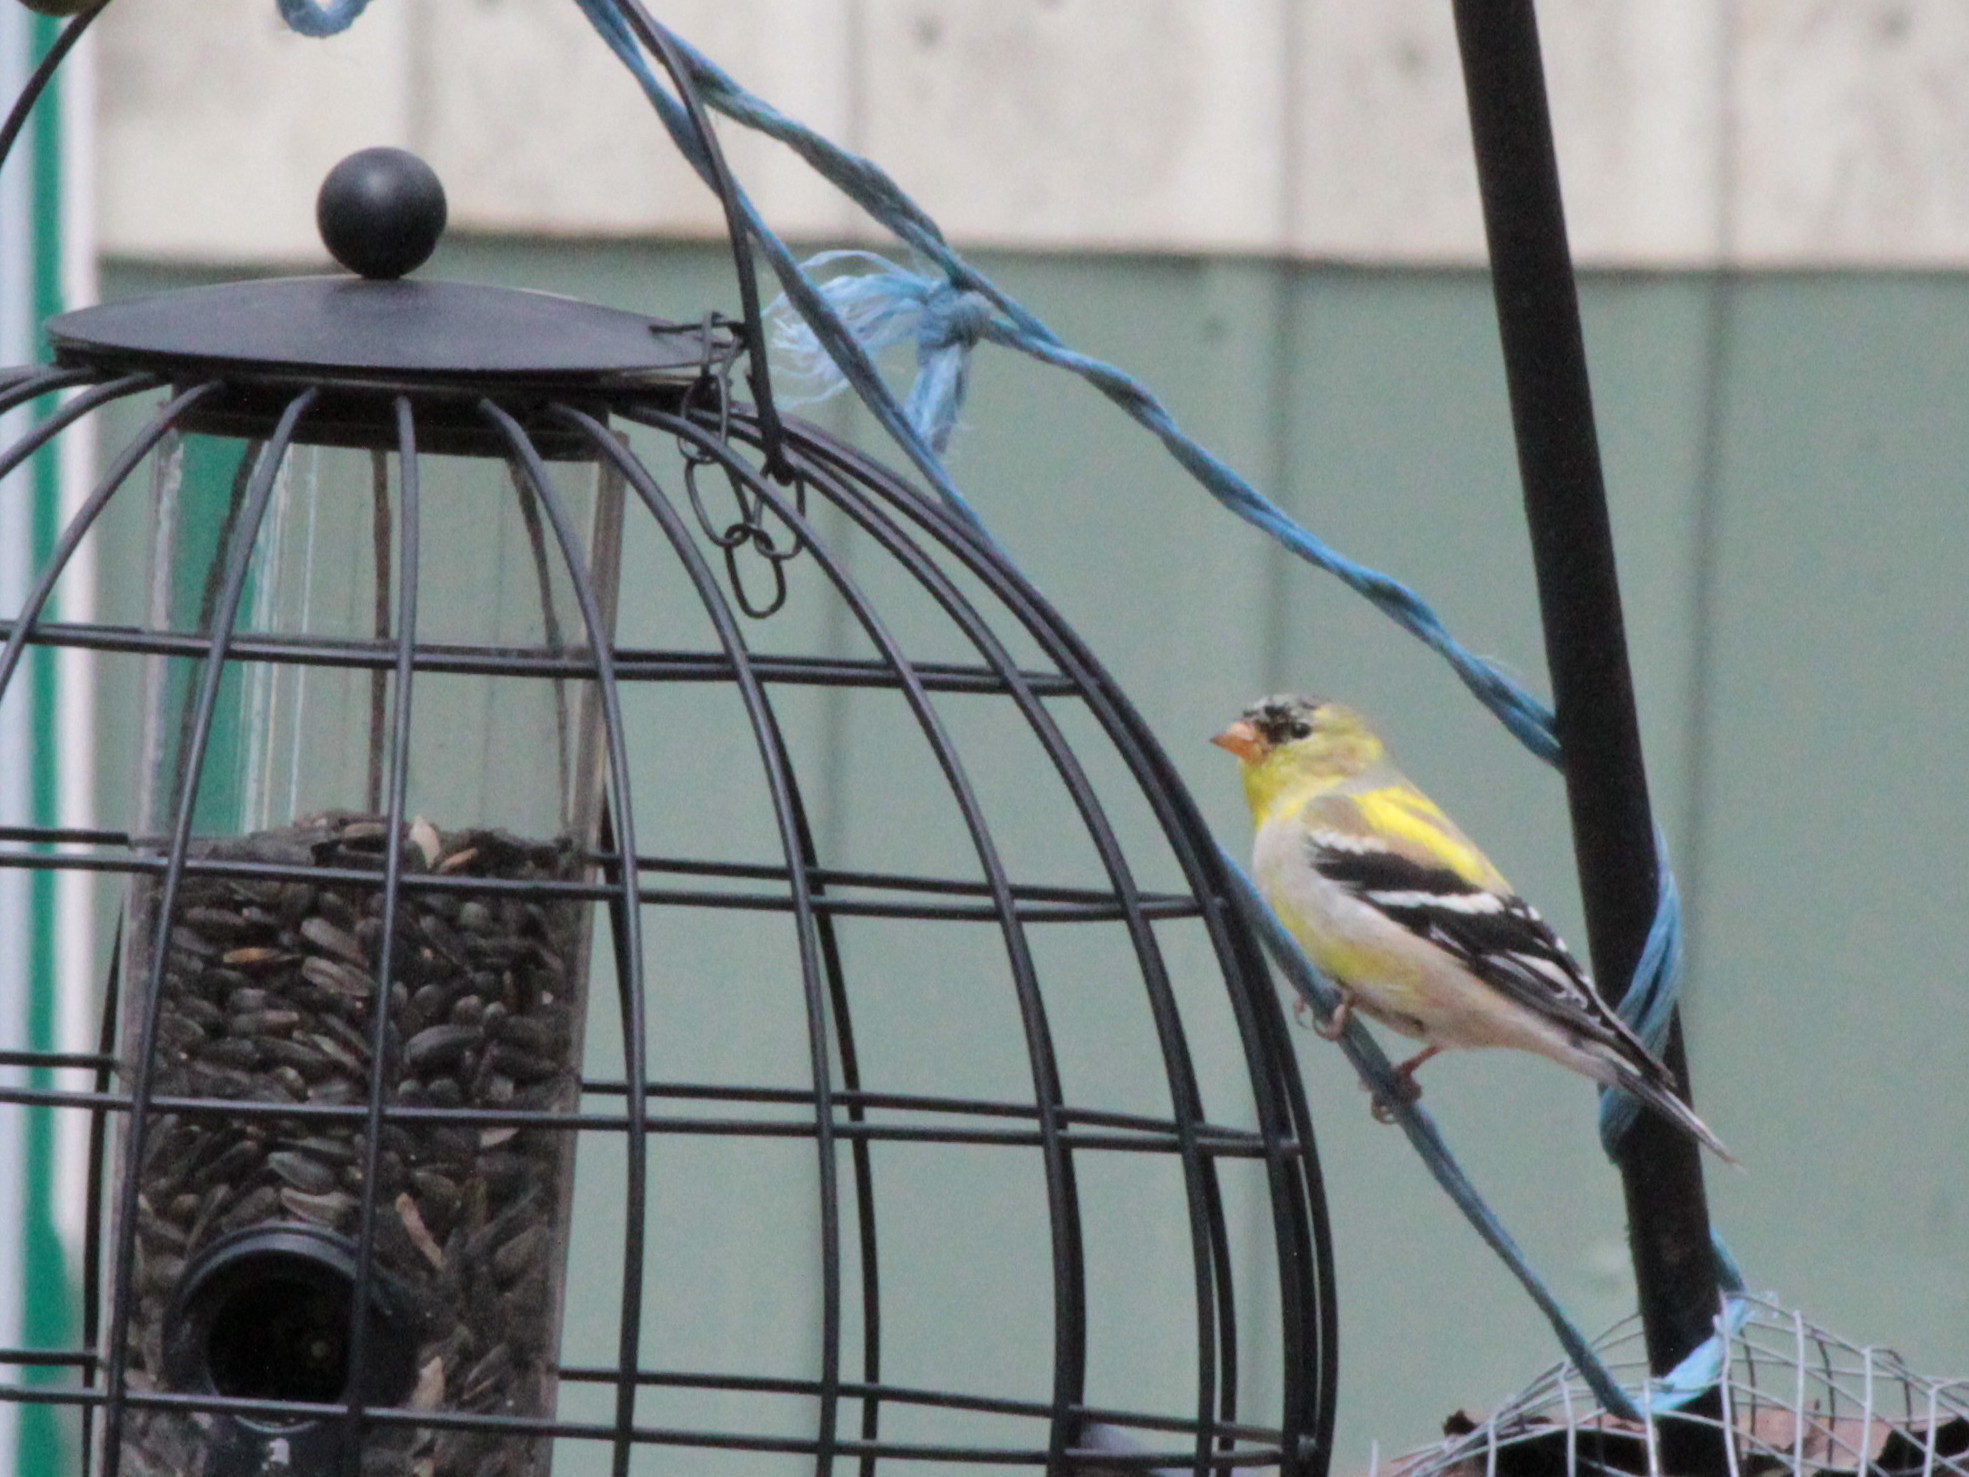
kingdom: Animalia
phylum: Chordata
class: Aves
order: Passeriformes
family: Fringillidae
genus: Spinus
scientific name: Spinus tristis
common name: American goldfinch
